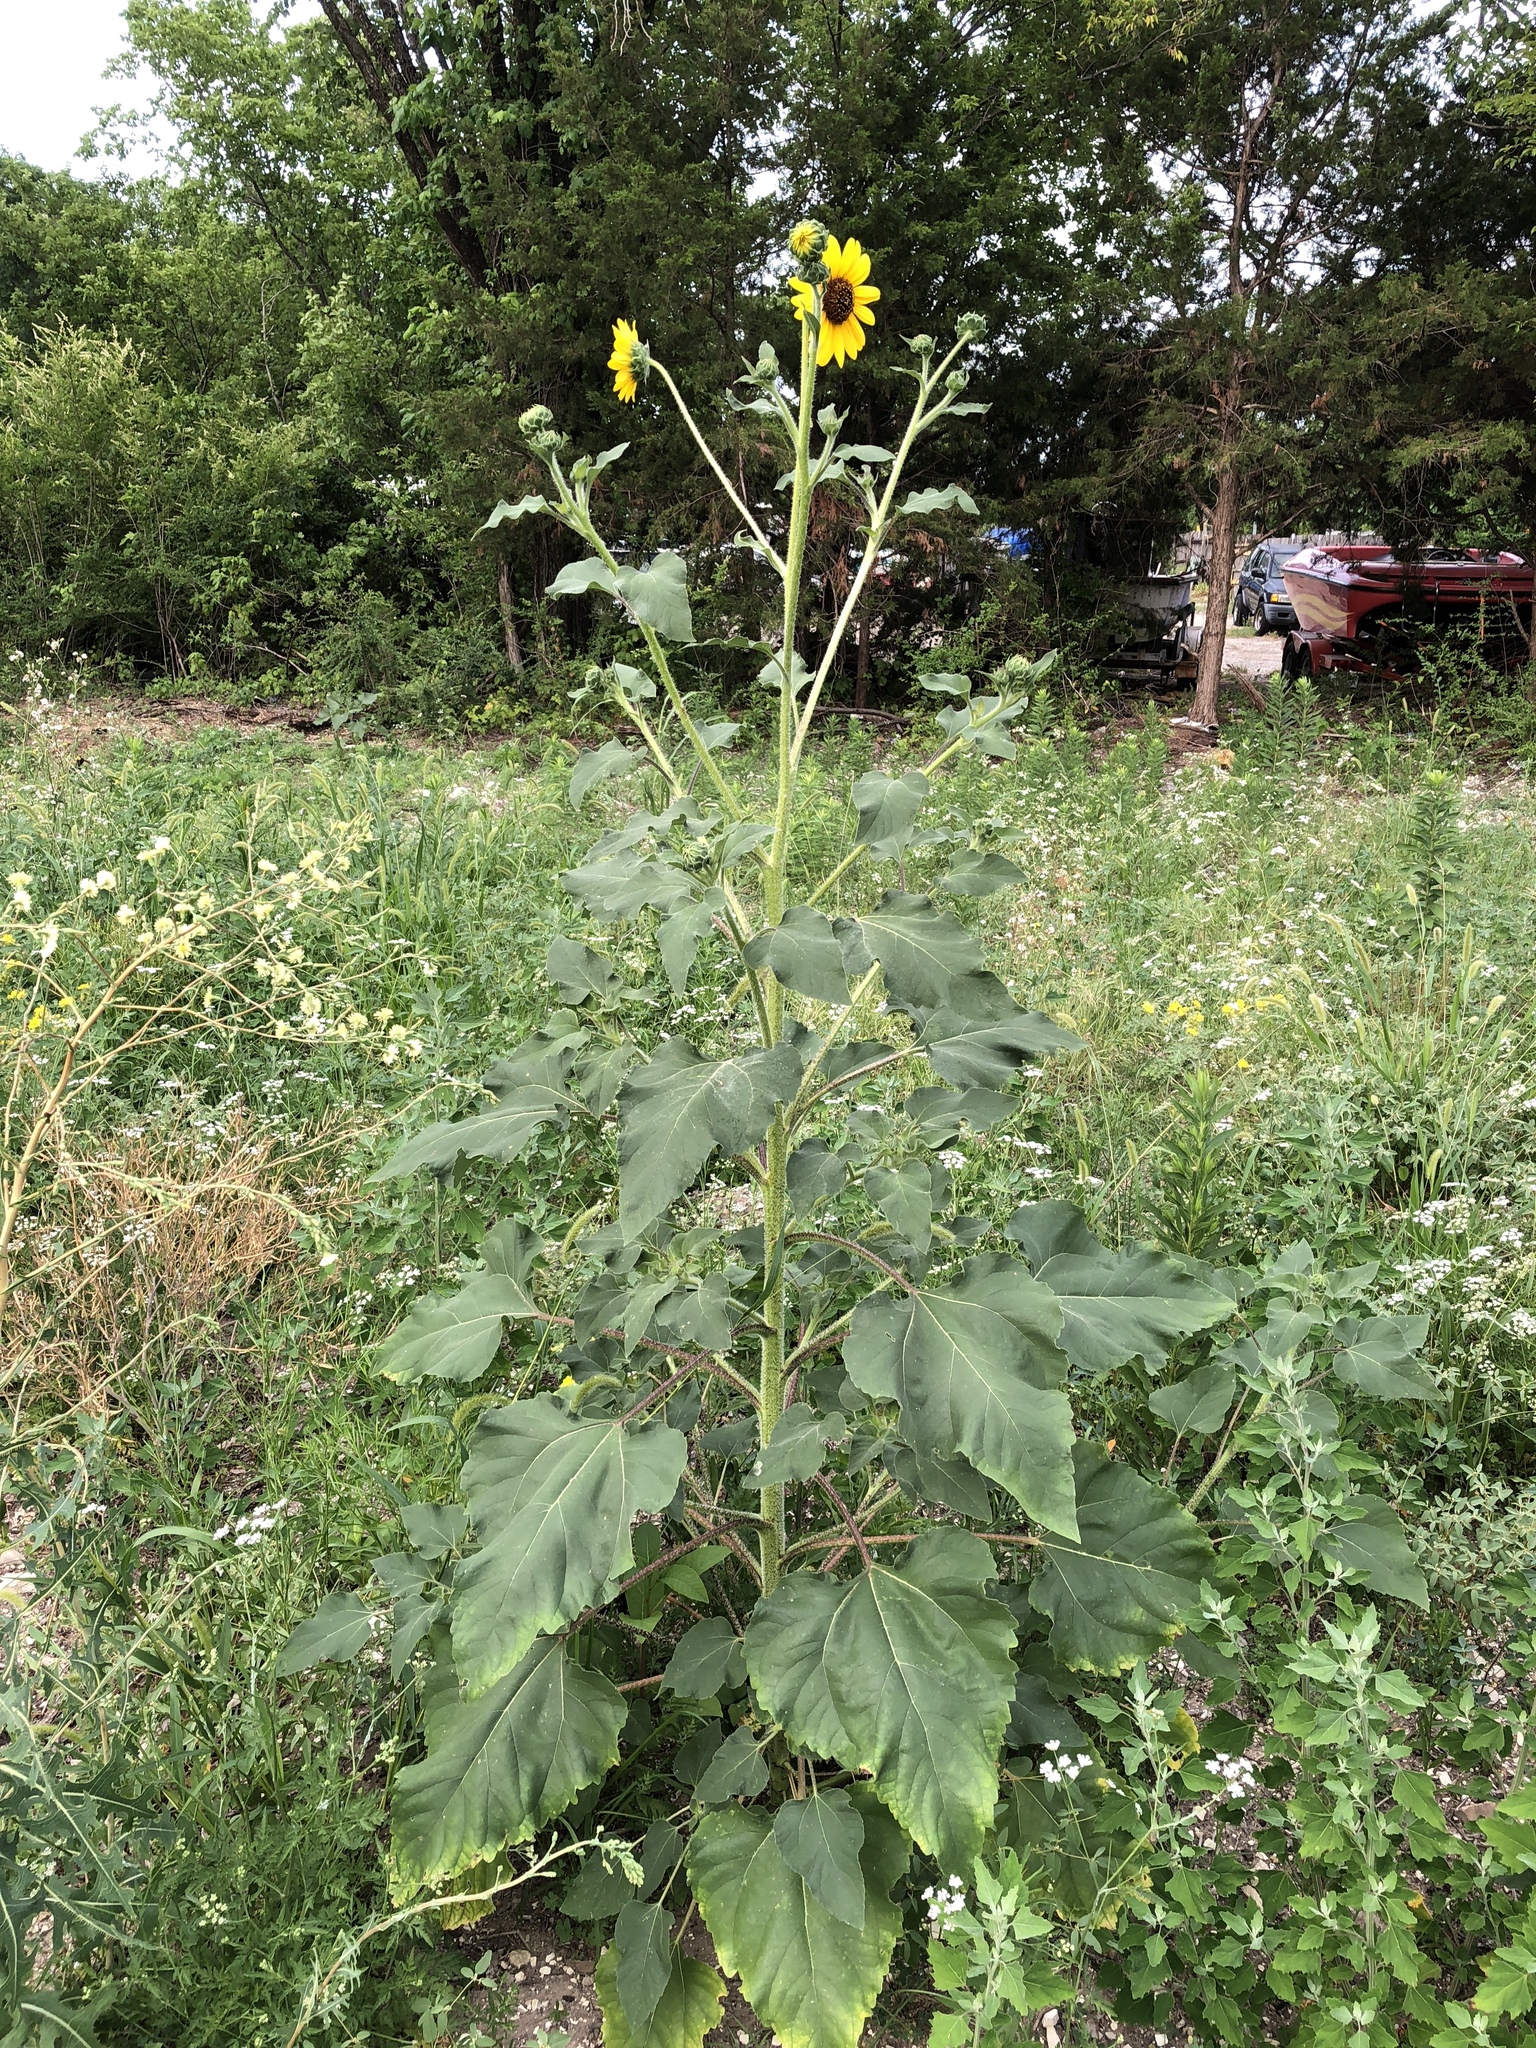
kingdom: Plantae
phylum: Tracheophyta
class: Magnoliopsida
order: Asterales
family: Asteraceae
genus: Helianthus
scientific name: Helianthus annuus
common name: Sunflower
